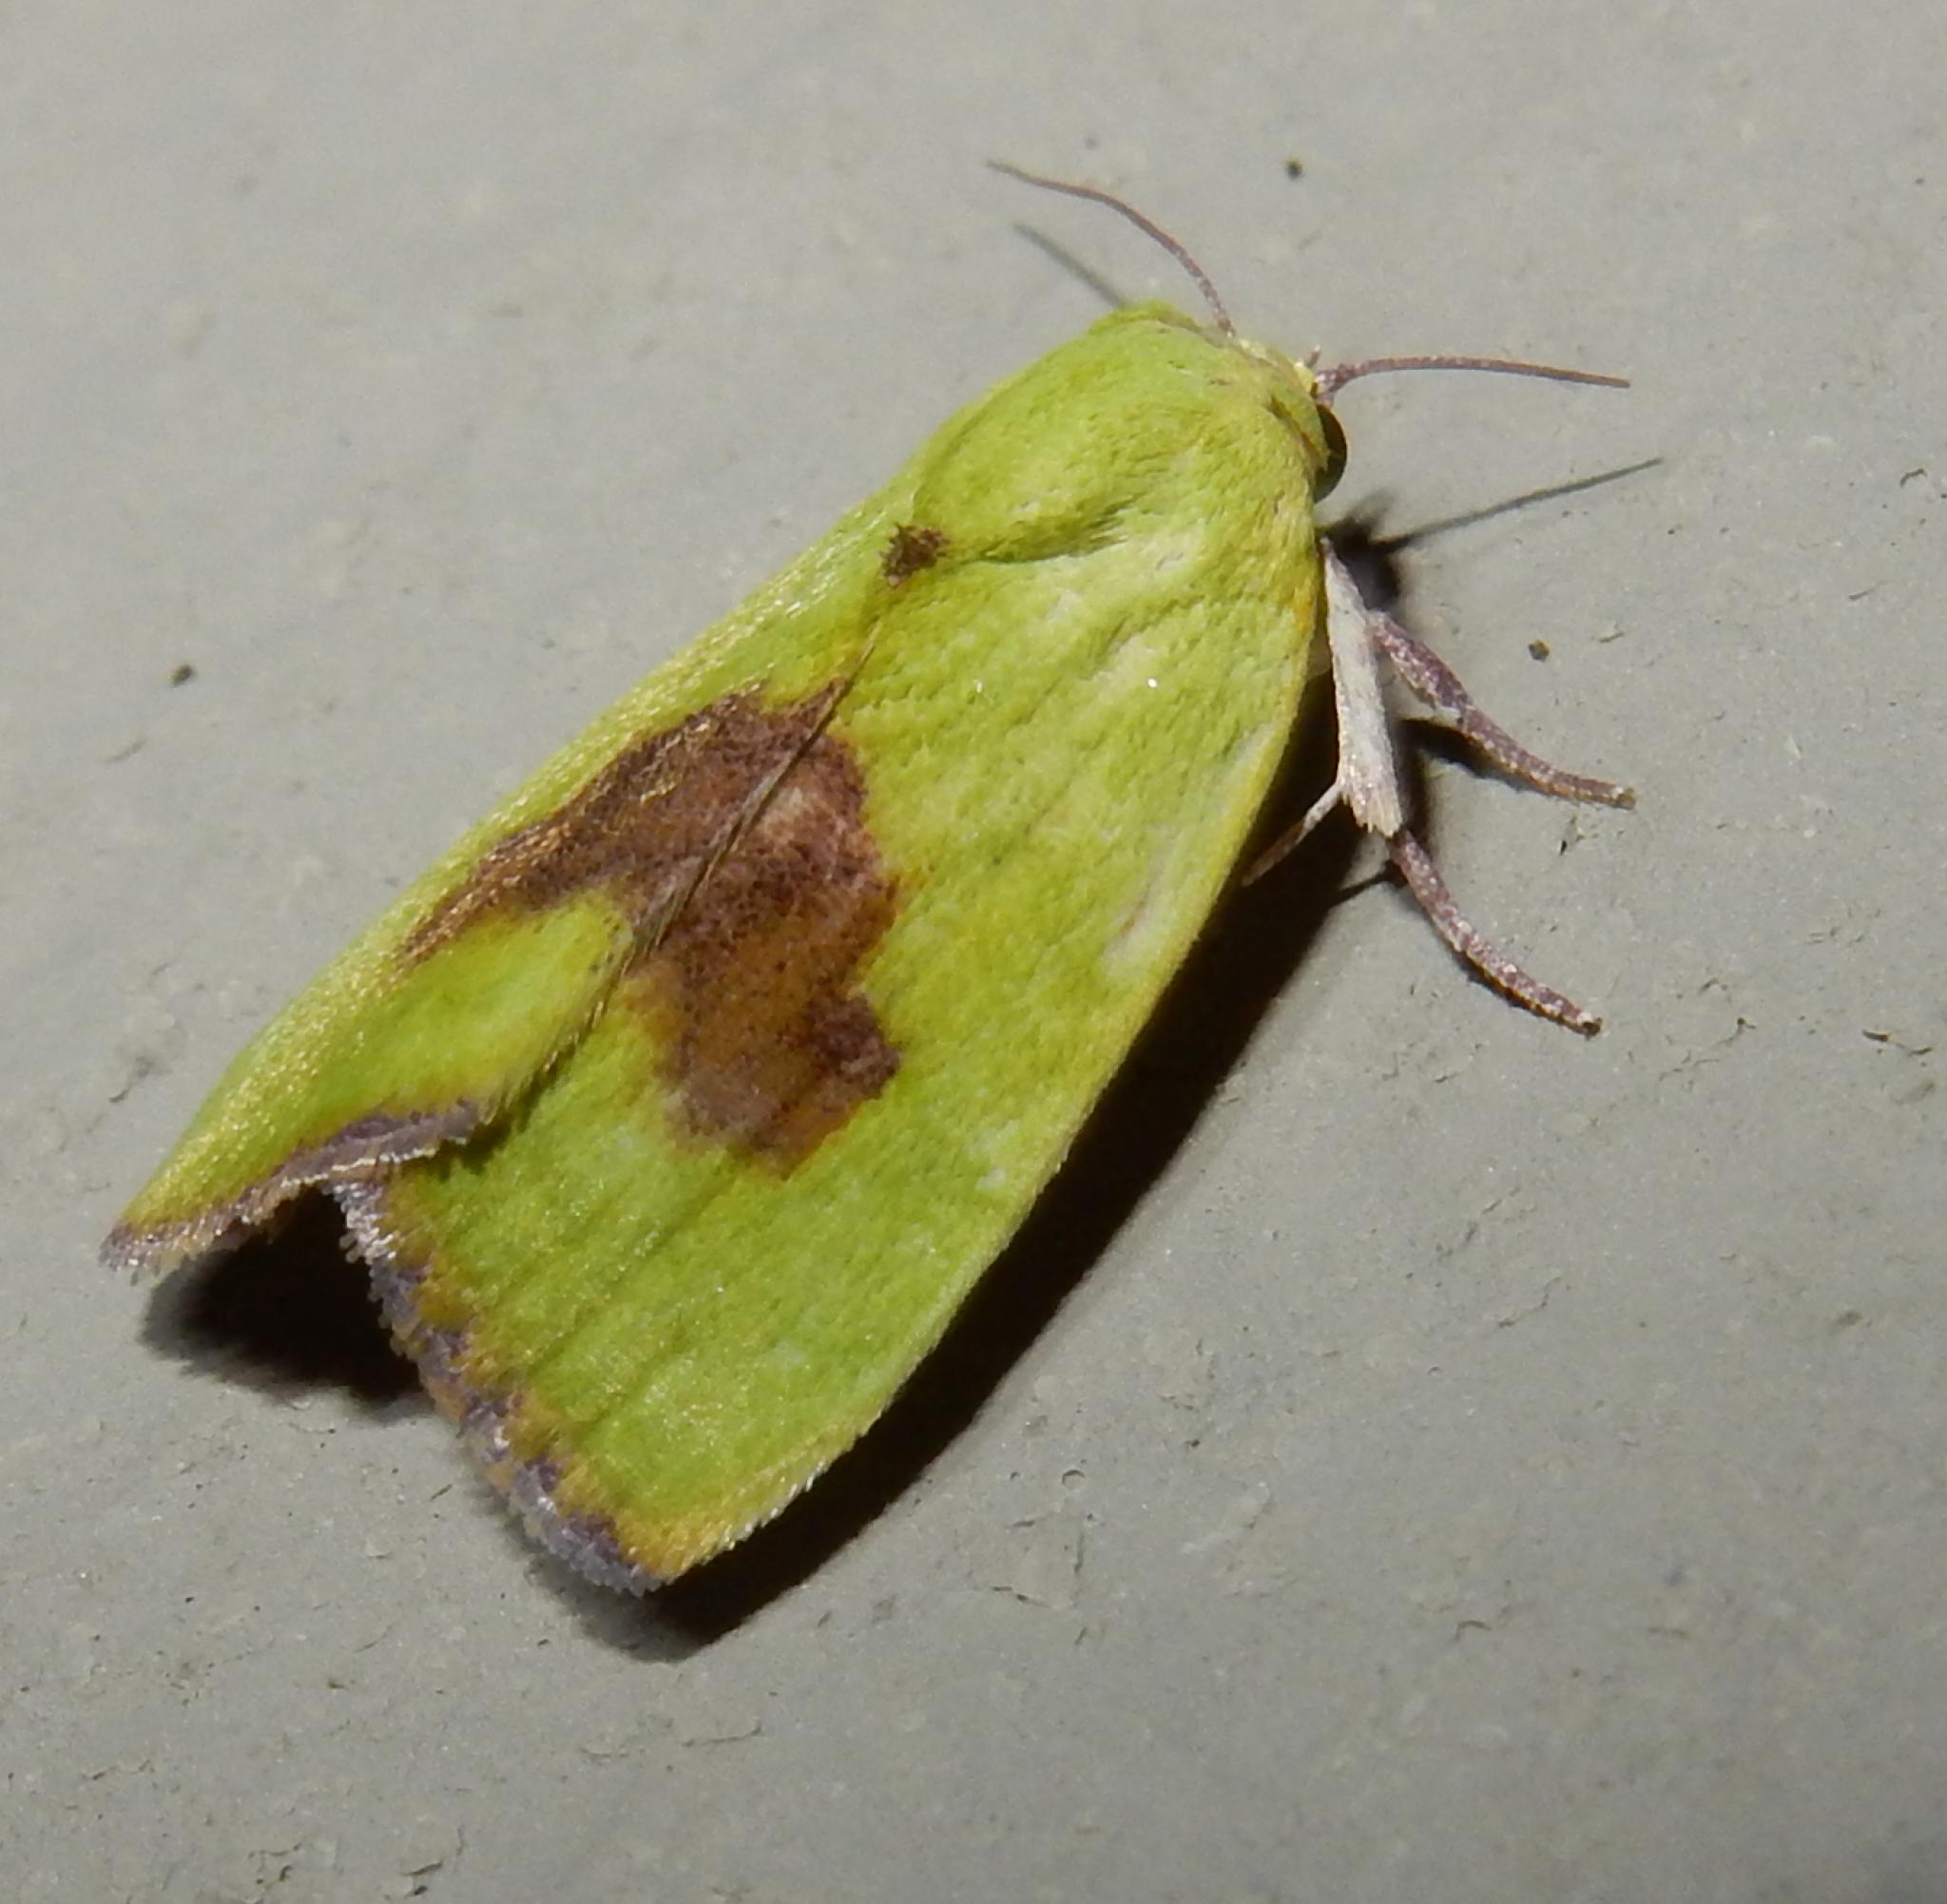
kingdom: Animalia
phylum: Arthropoda
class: Insecta
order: Lepidoptera
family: Nolidae
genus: Earias
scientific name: Earias biplaga
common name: Spiny bollworm
